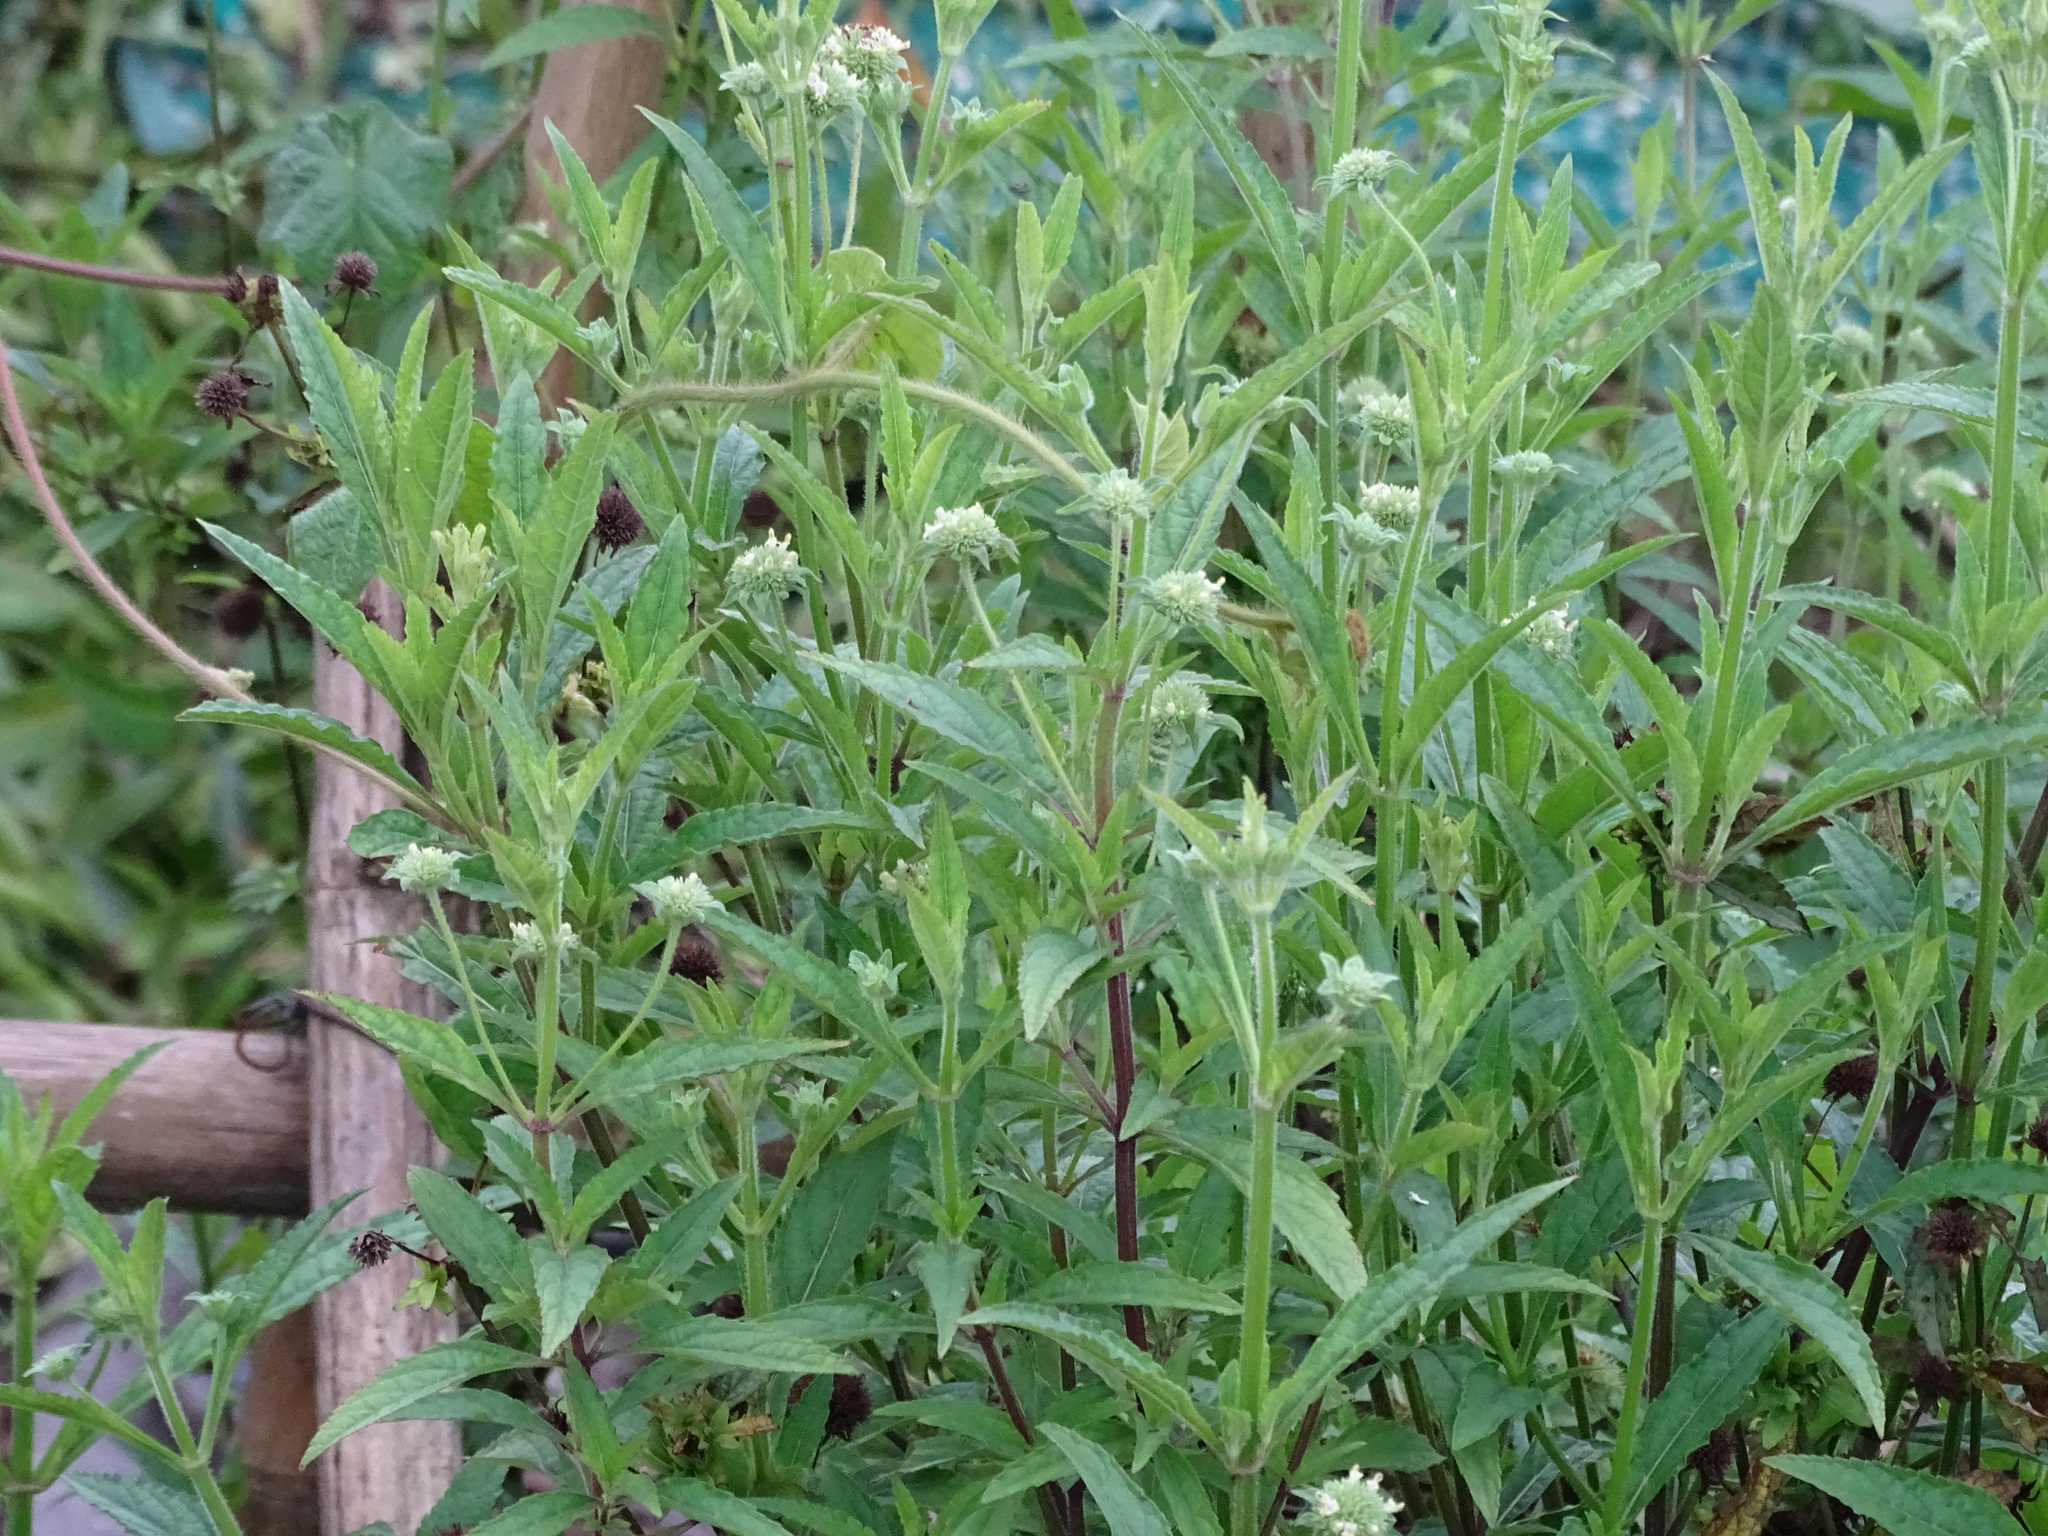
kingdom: Plantae
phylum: Tracheophyta
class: Magnoliopsida
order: Lamiales
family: Lamiaceae
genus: Hyptis
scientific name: Hyptis capitata
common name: False ironwort
